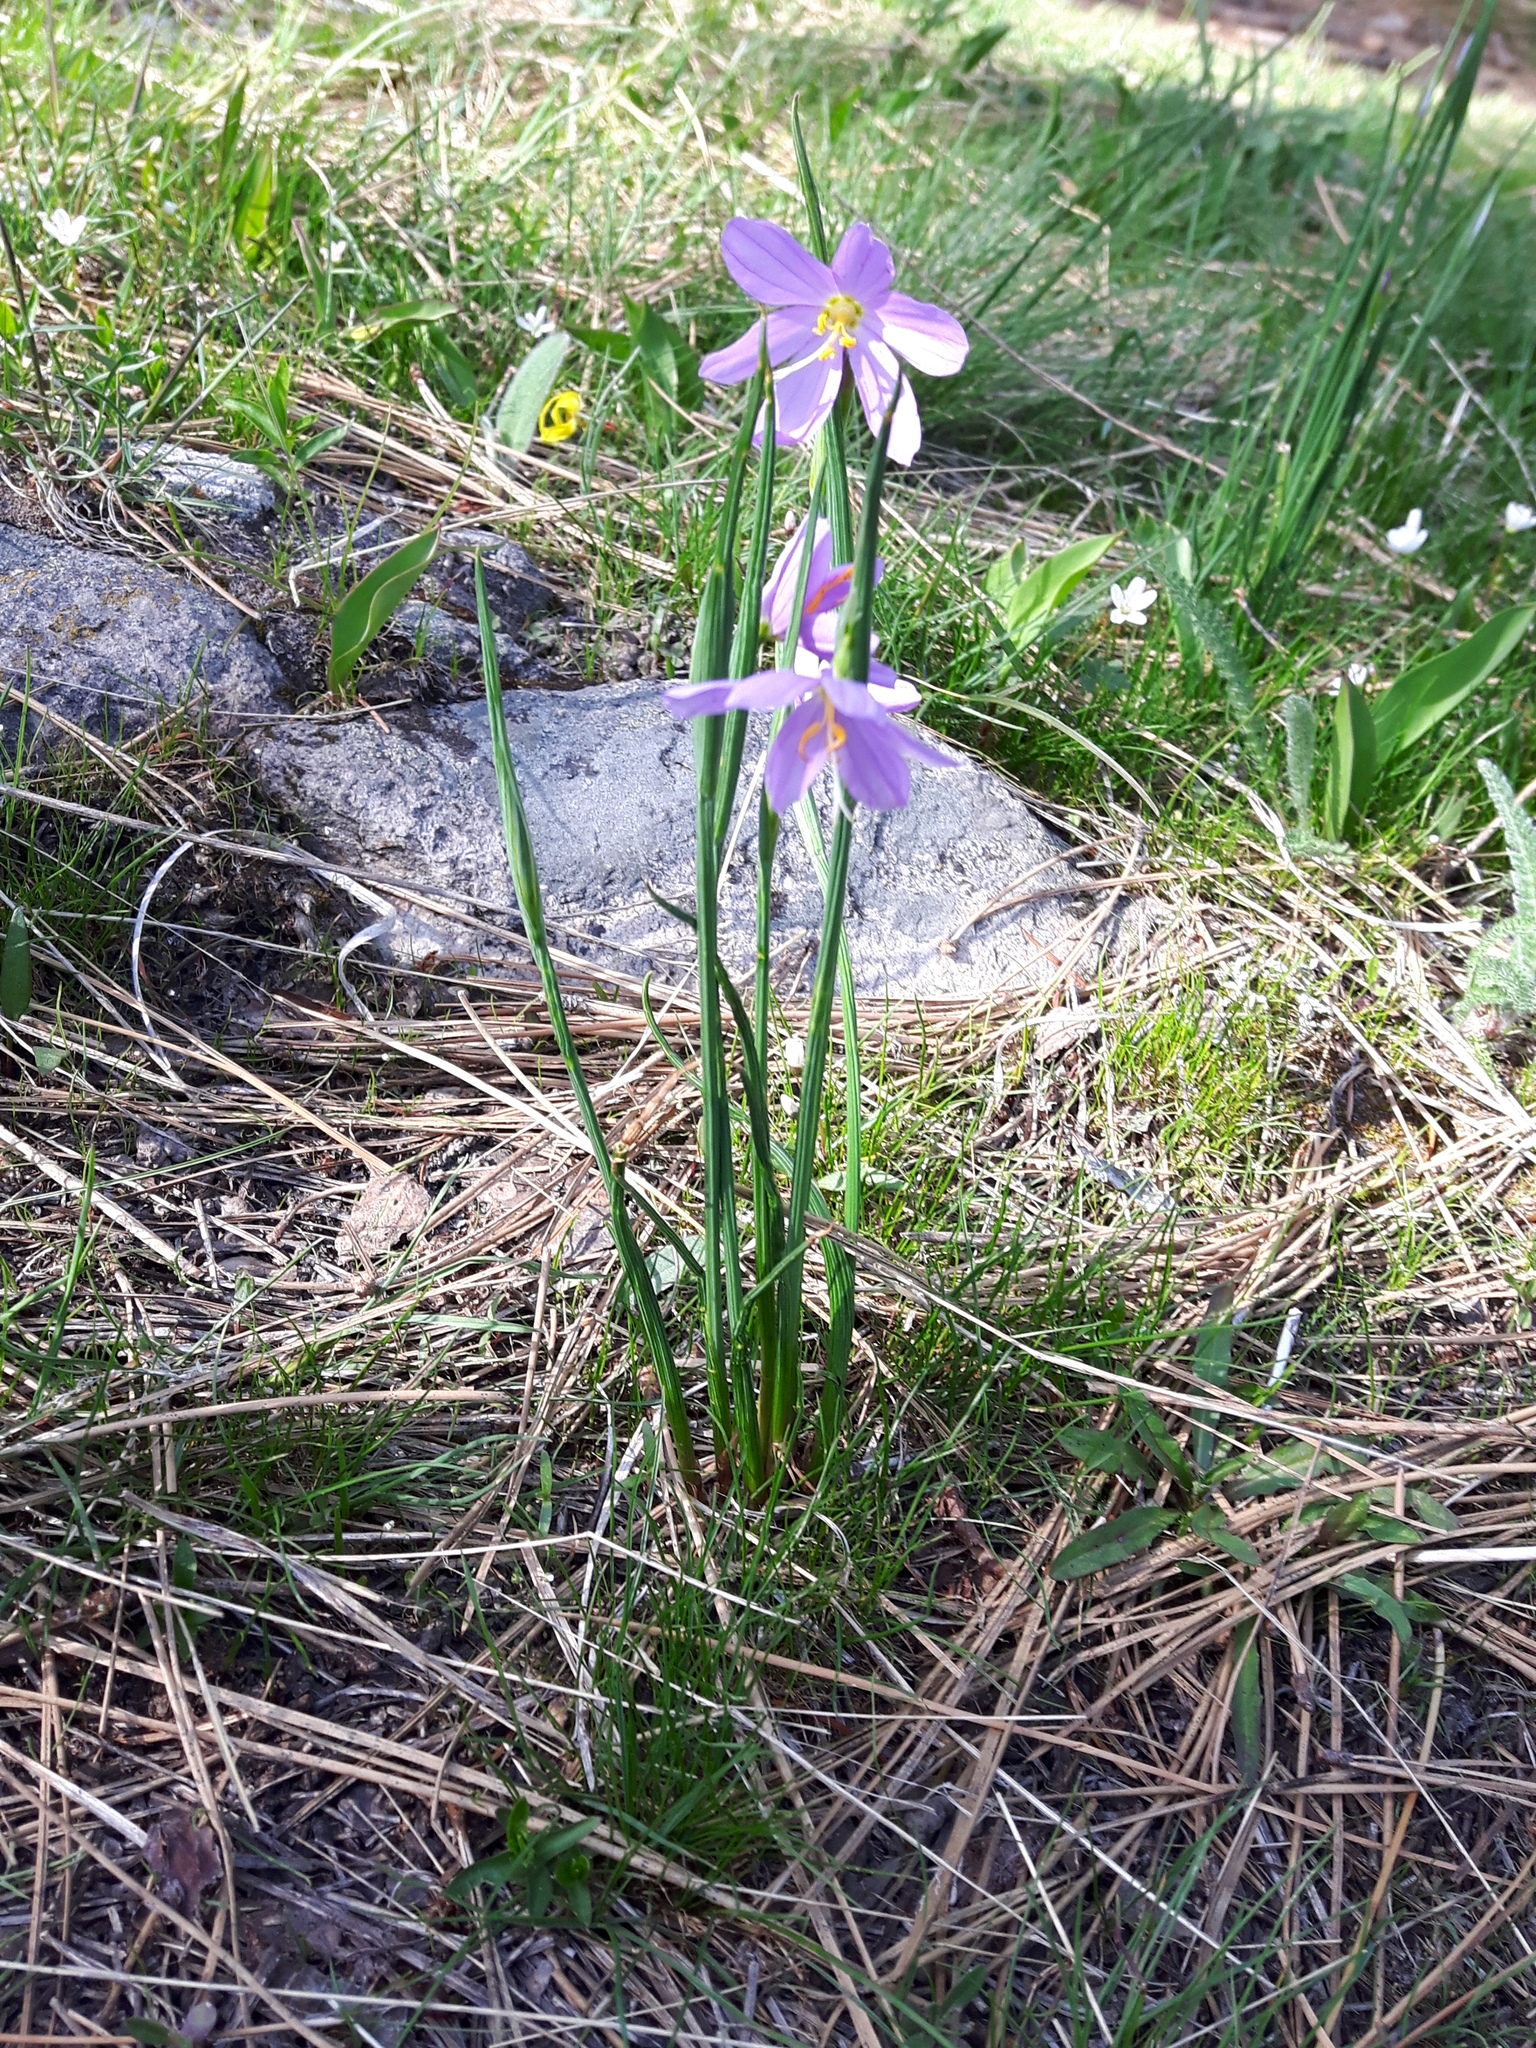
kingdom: Plantae
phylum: Tracheophyta
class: Liliopsida
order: Asparagales
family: Iridaceae
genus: Olsynium
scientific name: Olsynium douglasii
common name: Douglas' grasswidow
